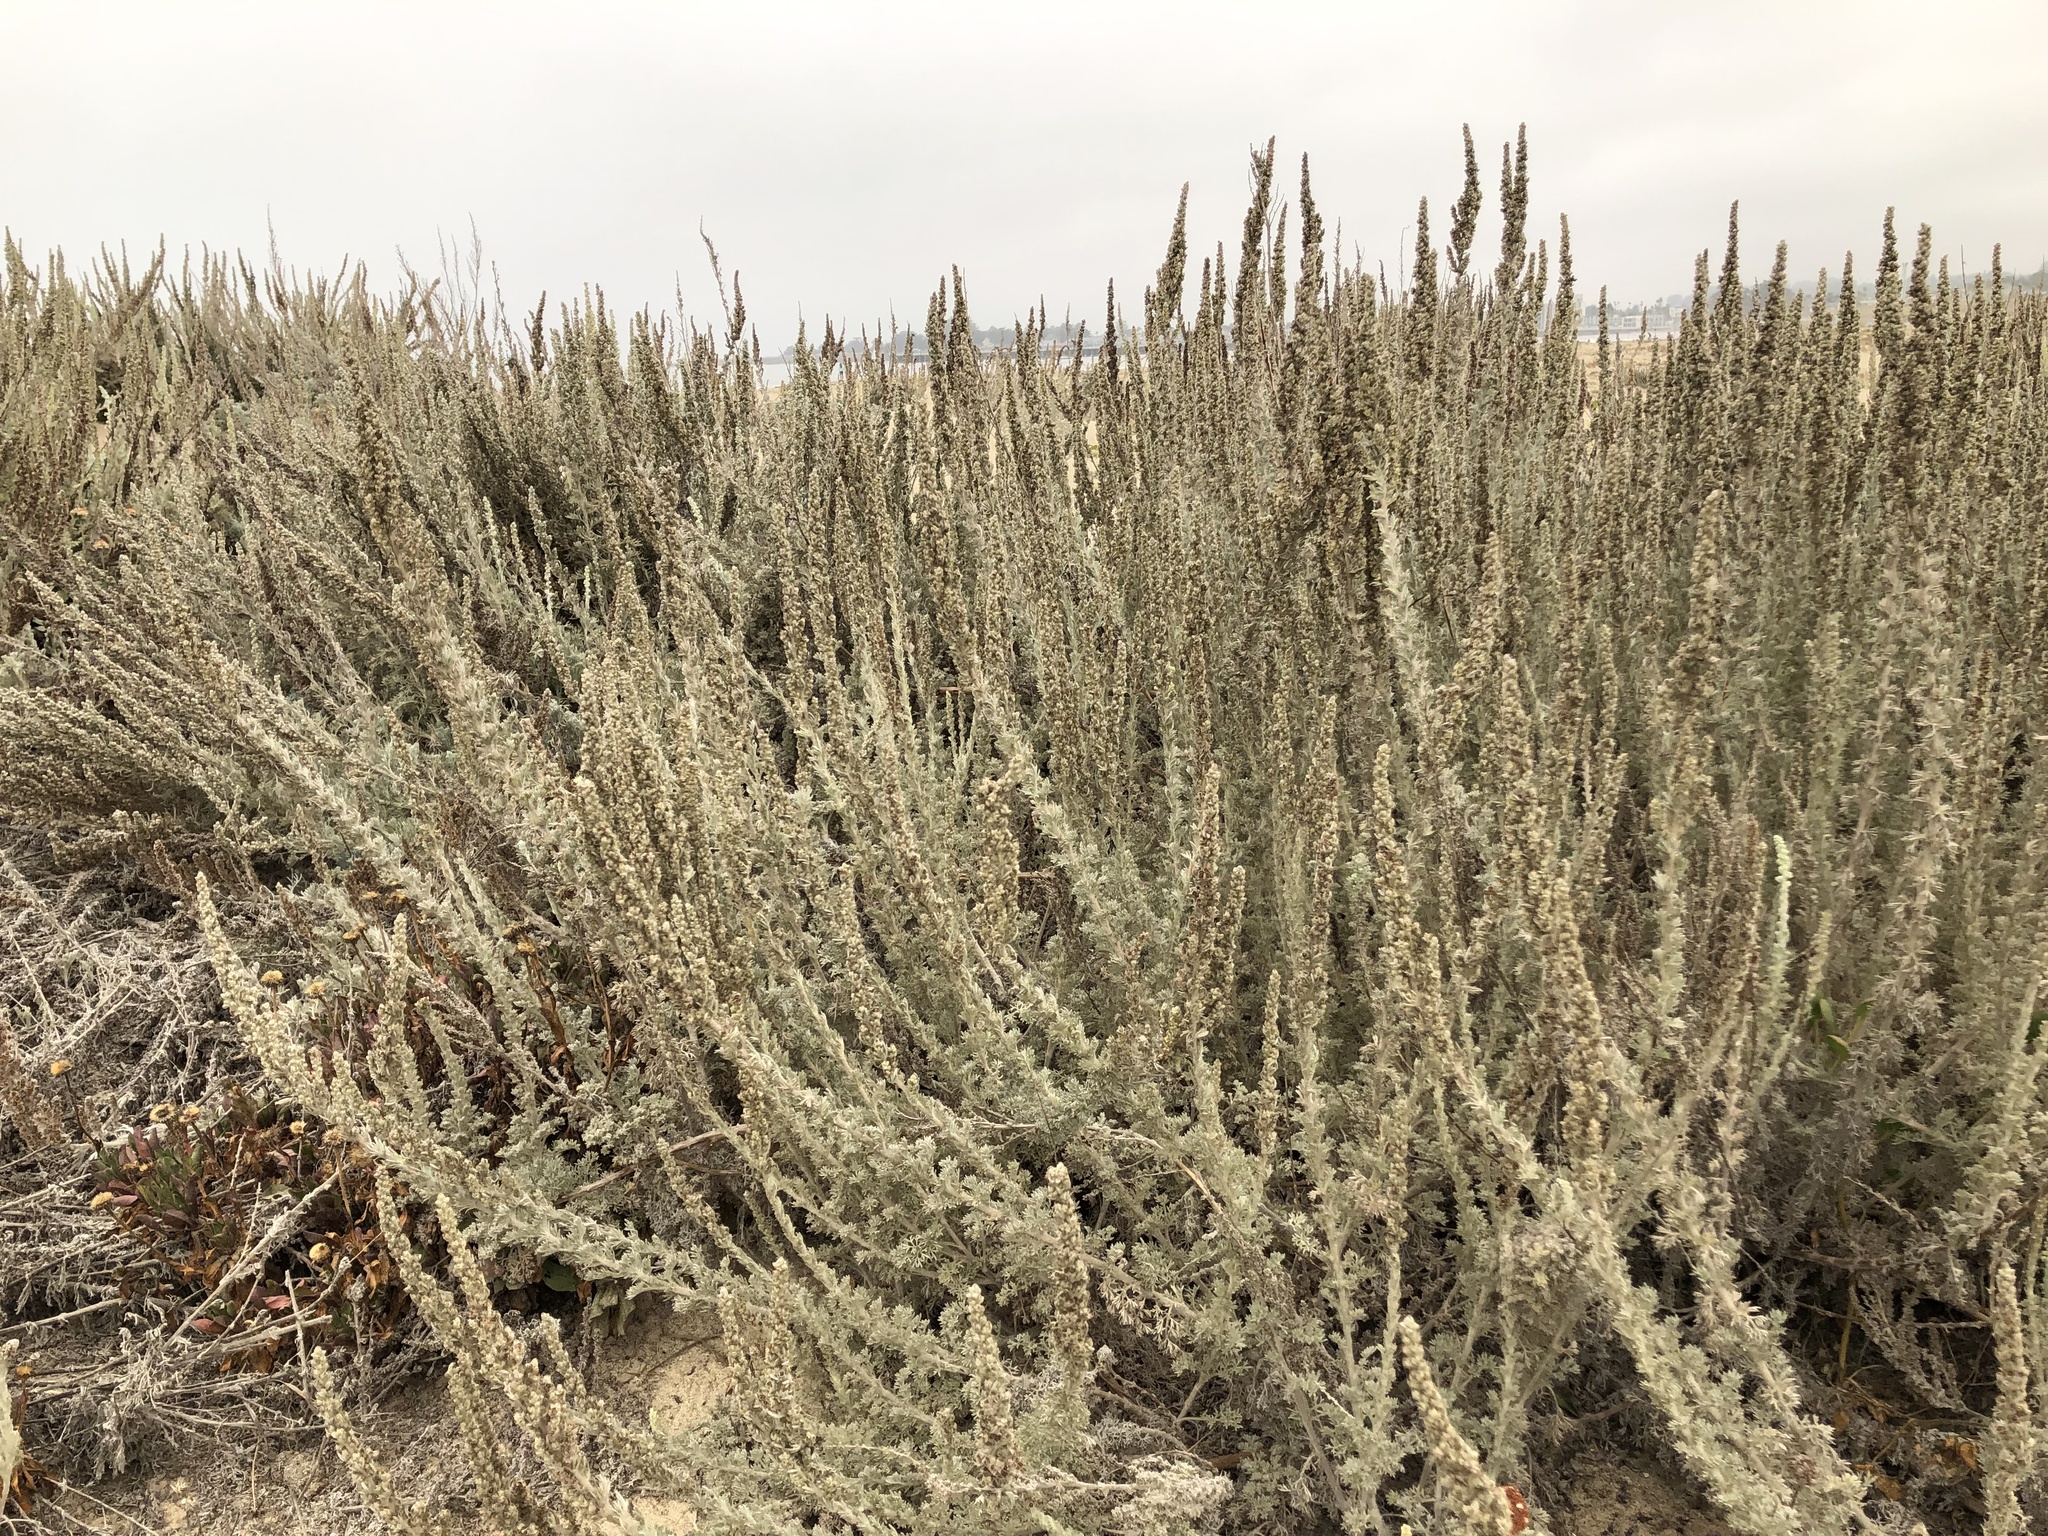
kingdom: Plantae
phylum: Tracheophyta
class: Magnoliopsida
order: Asterales
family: Asteraceae
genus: Artemisia
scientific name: Artemisia pycnocephala
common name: Coastal sagewort
